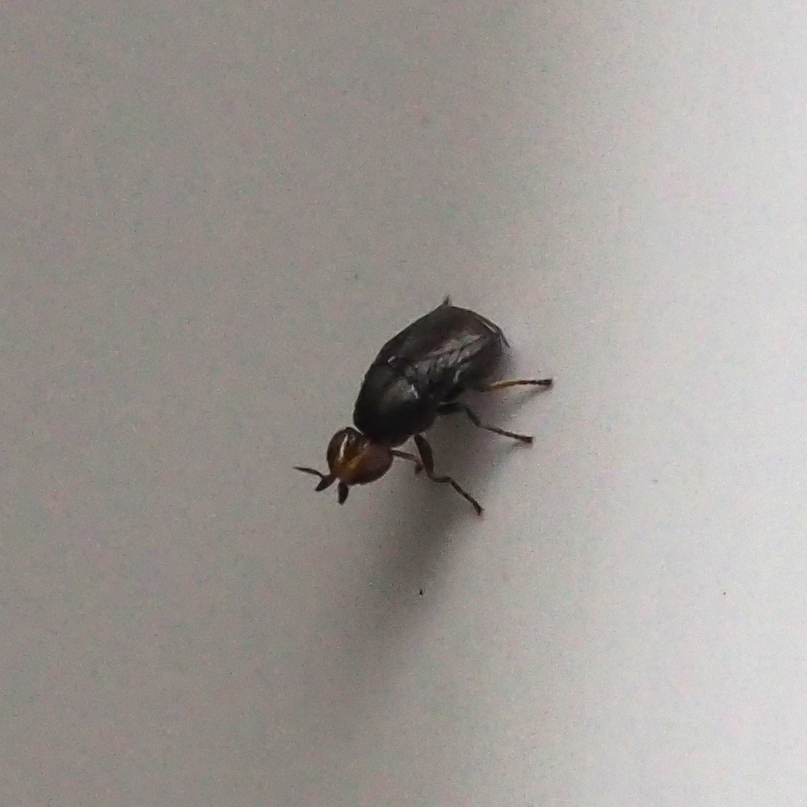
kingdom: Animalia
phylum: Arthropoda
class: Insecta
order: Diptera
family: Chloropidae
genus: Camarota
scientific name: Camarota curvipennis
